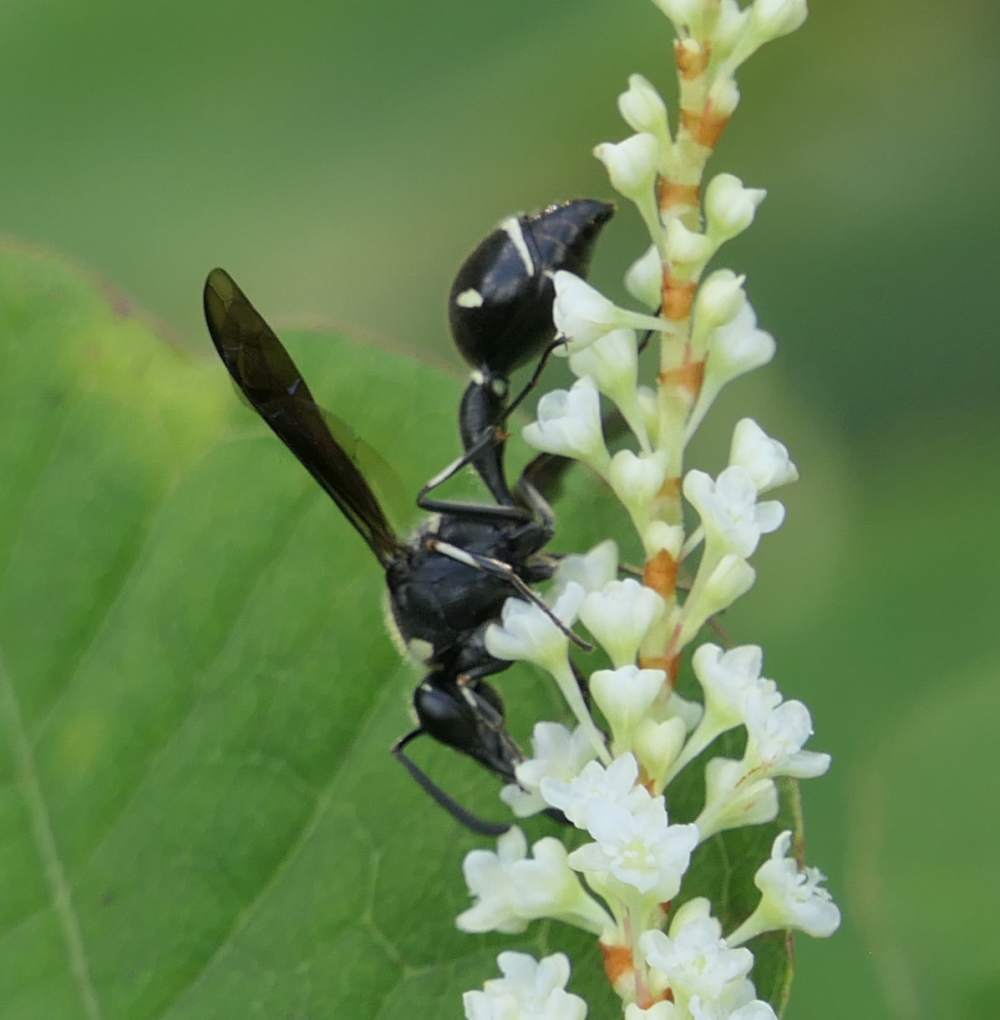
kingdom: Animalia
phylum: Arthropoda
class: Insecta
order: Hymenoptera
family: Vespidae
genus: Eumenes
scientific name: Eumenes fraternus
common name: Fraternal potter wasp
